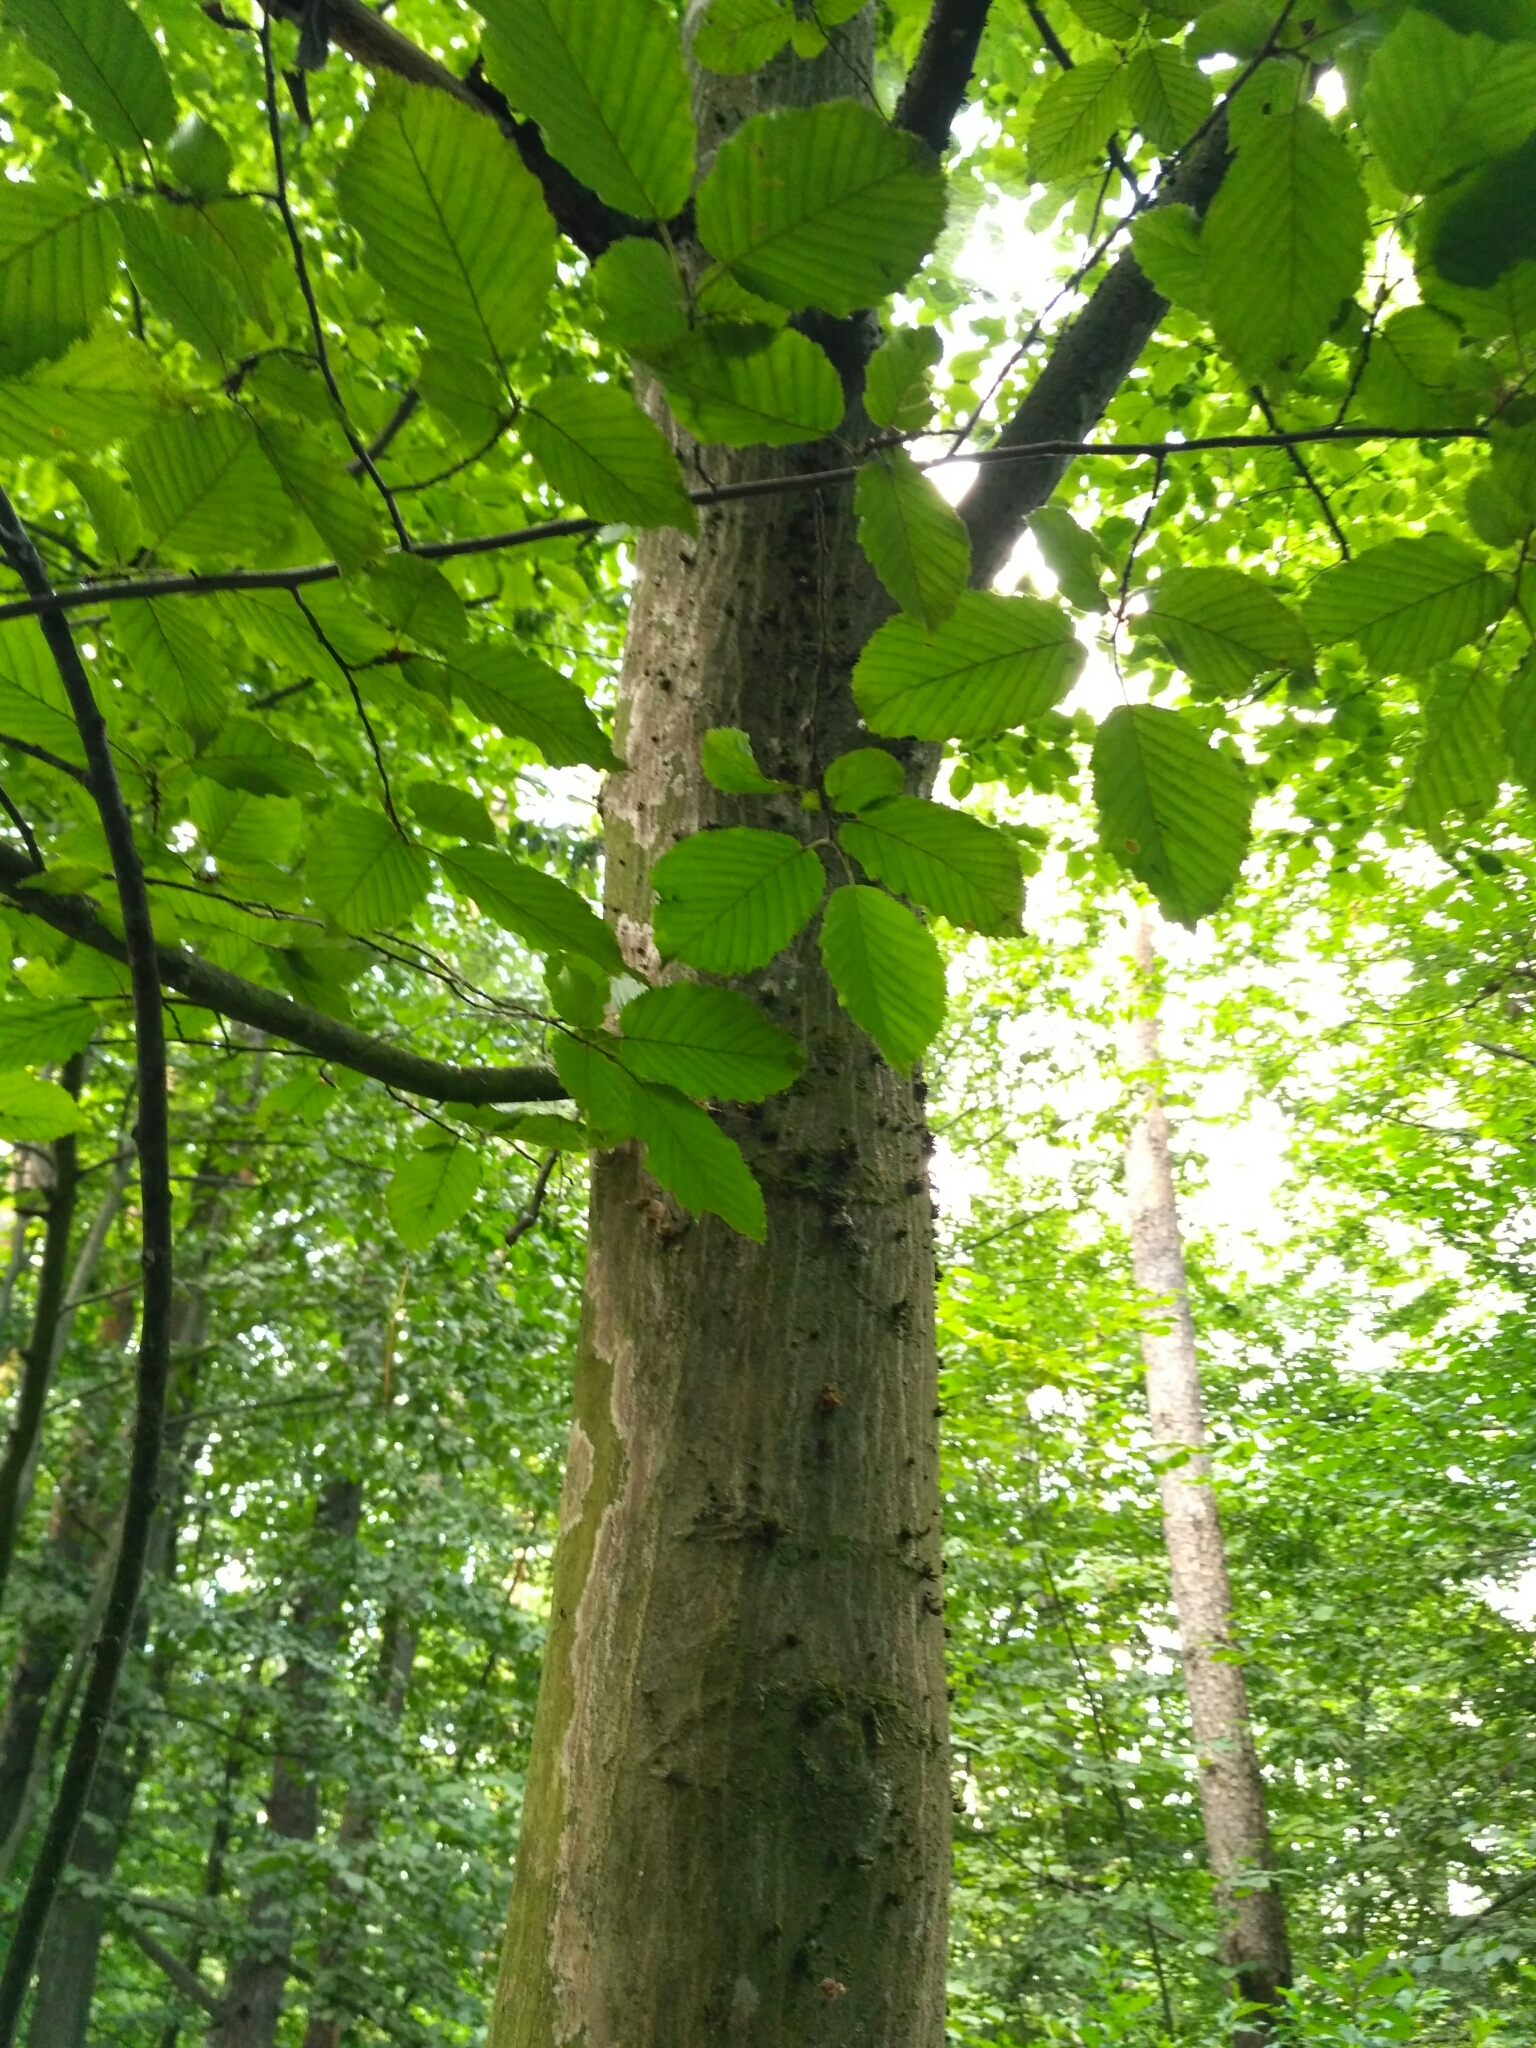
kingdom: Plantae
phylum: Tracheophyta
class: Magnoliopsida
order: Fagales
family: Betulaceae
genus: Carpinus
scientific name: Carpinus betulus
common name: Hornbeam
